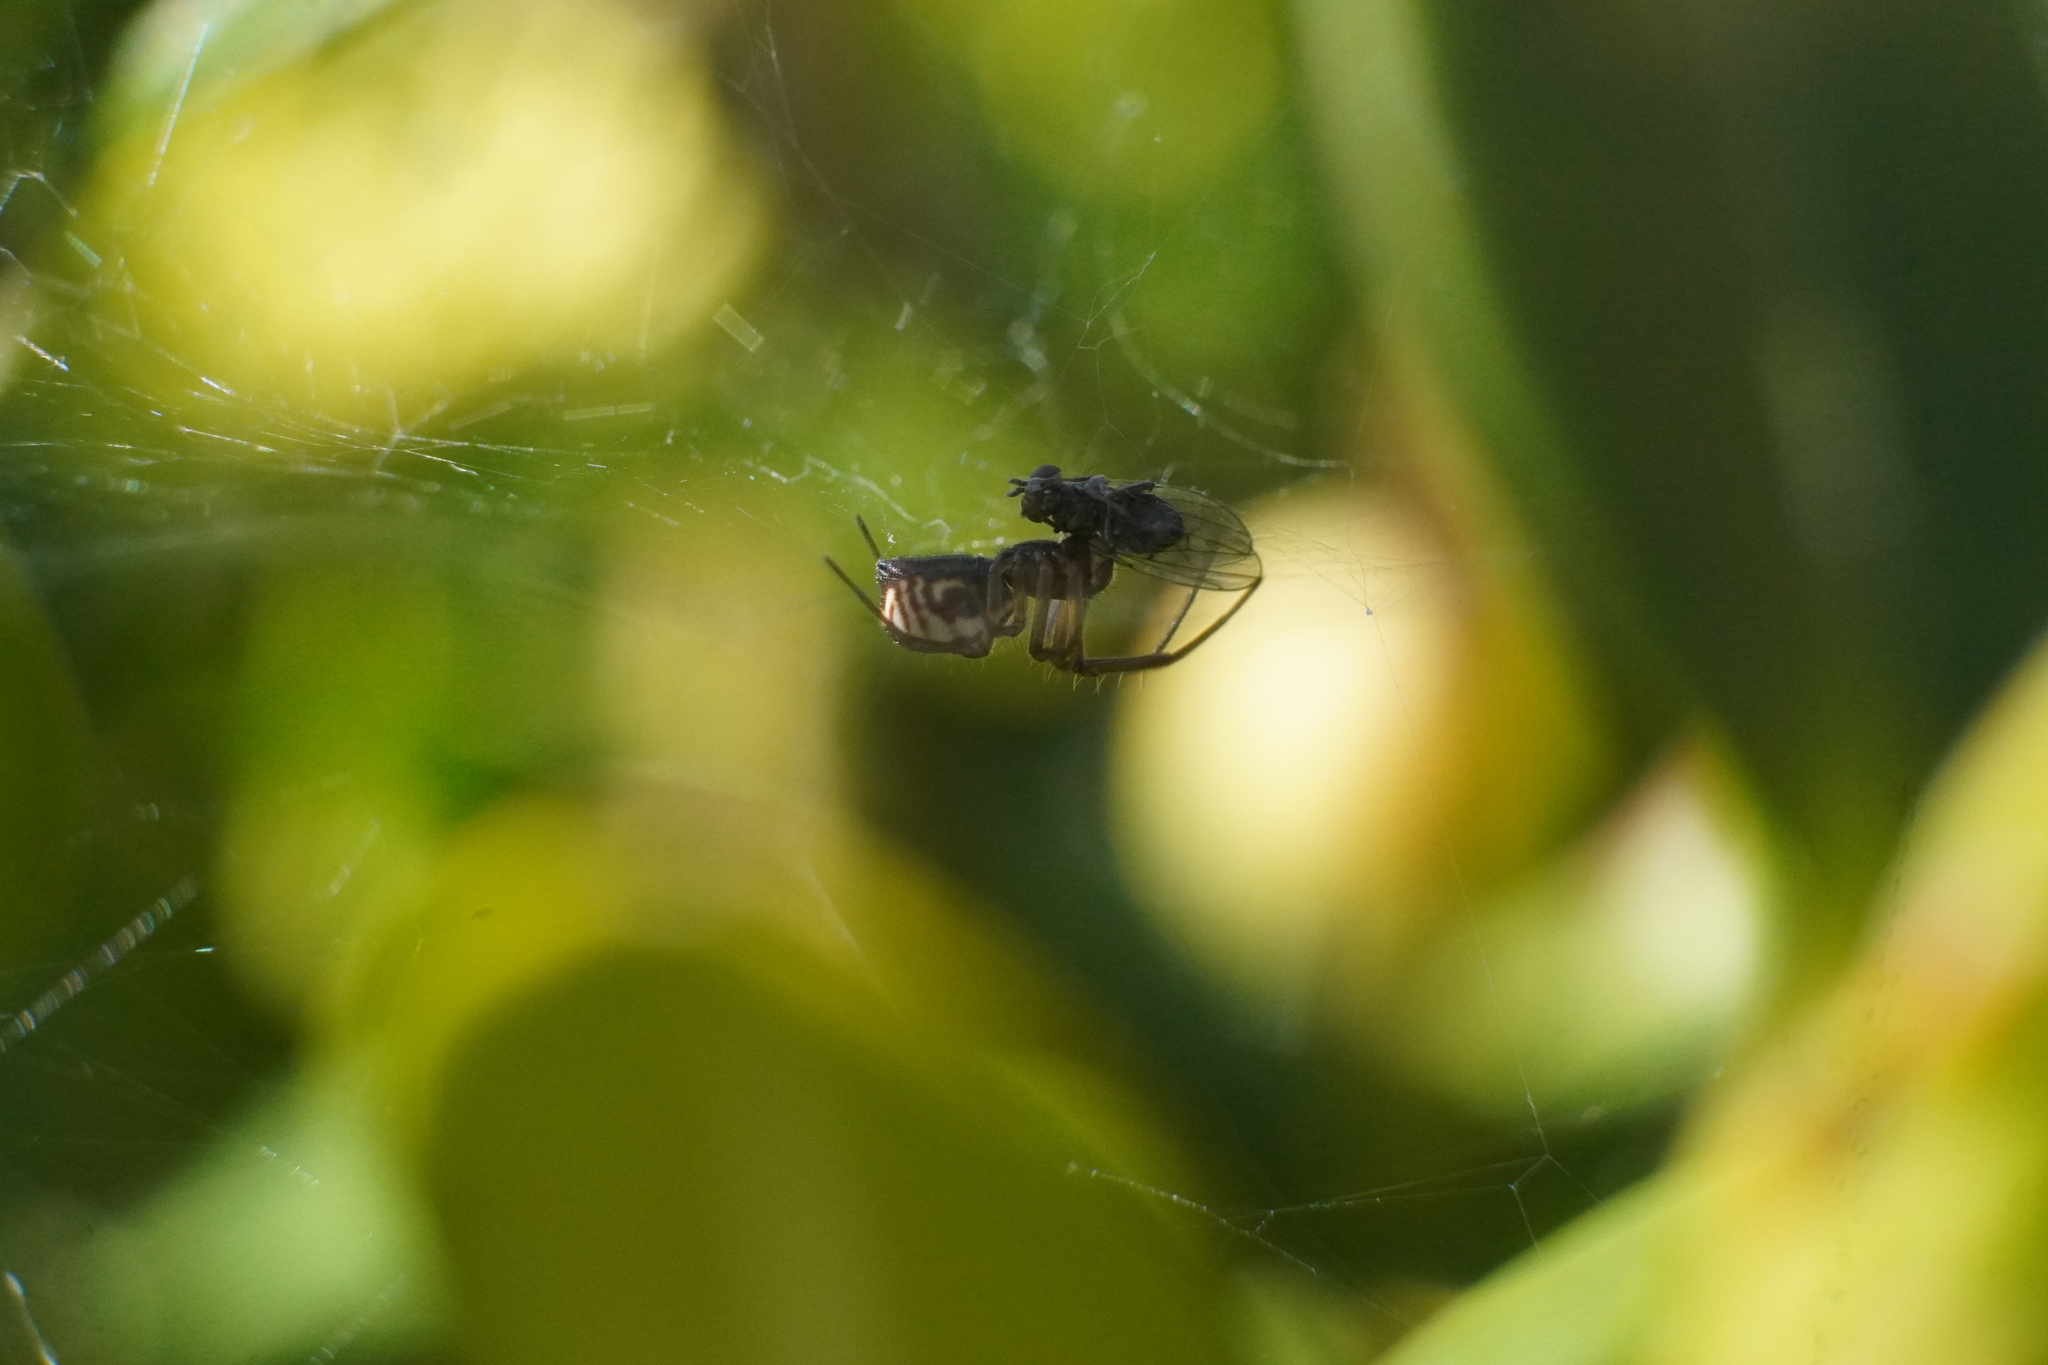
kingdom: Animalia
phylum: Arthropoda
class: Arachnida
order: Araneae
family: Linyphiidae
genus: Frontinella
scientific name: Frontinella pyramitela
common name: Bowl-and-doily spider
